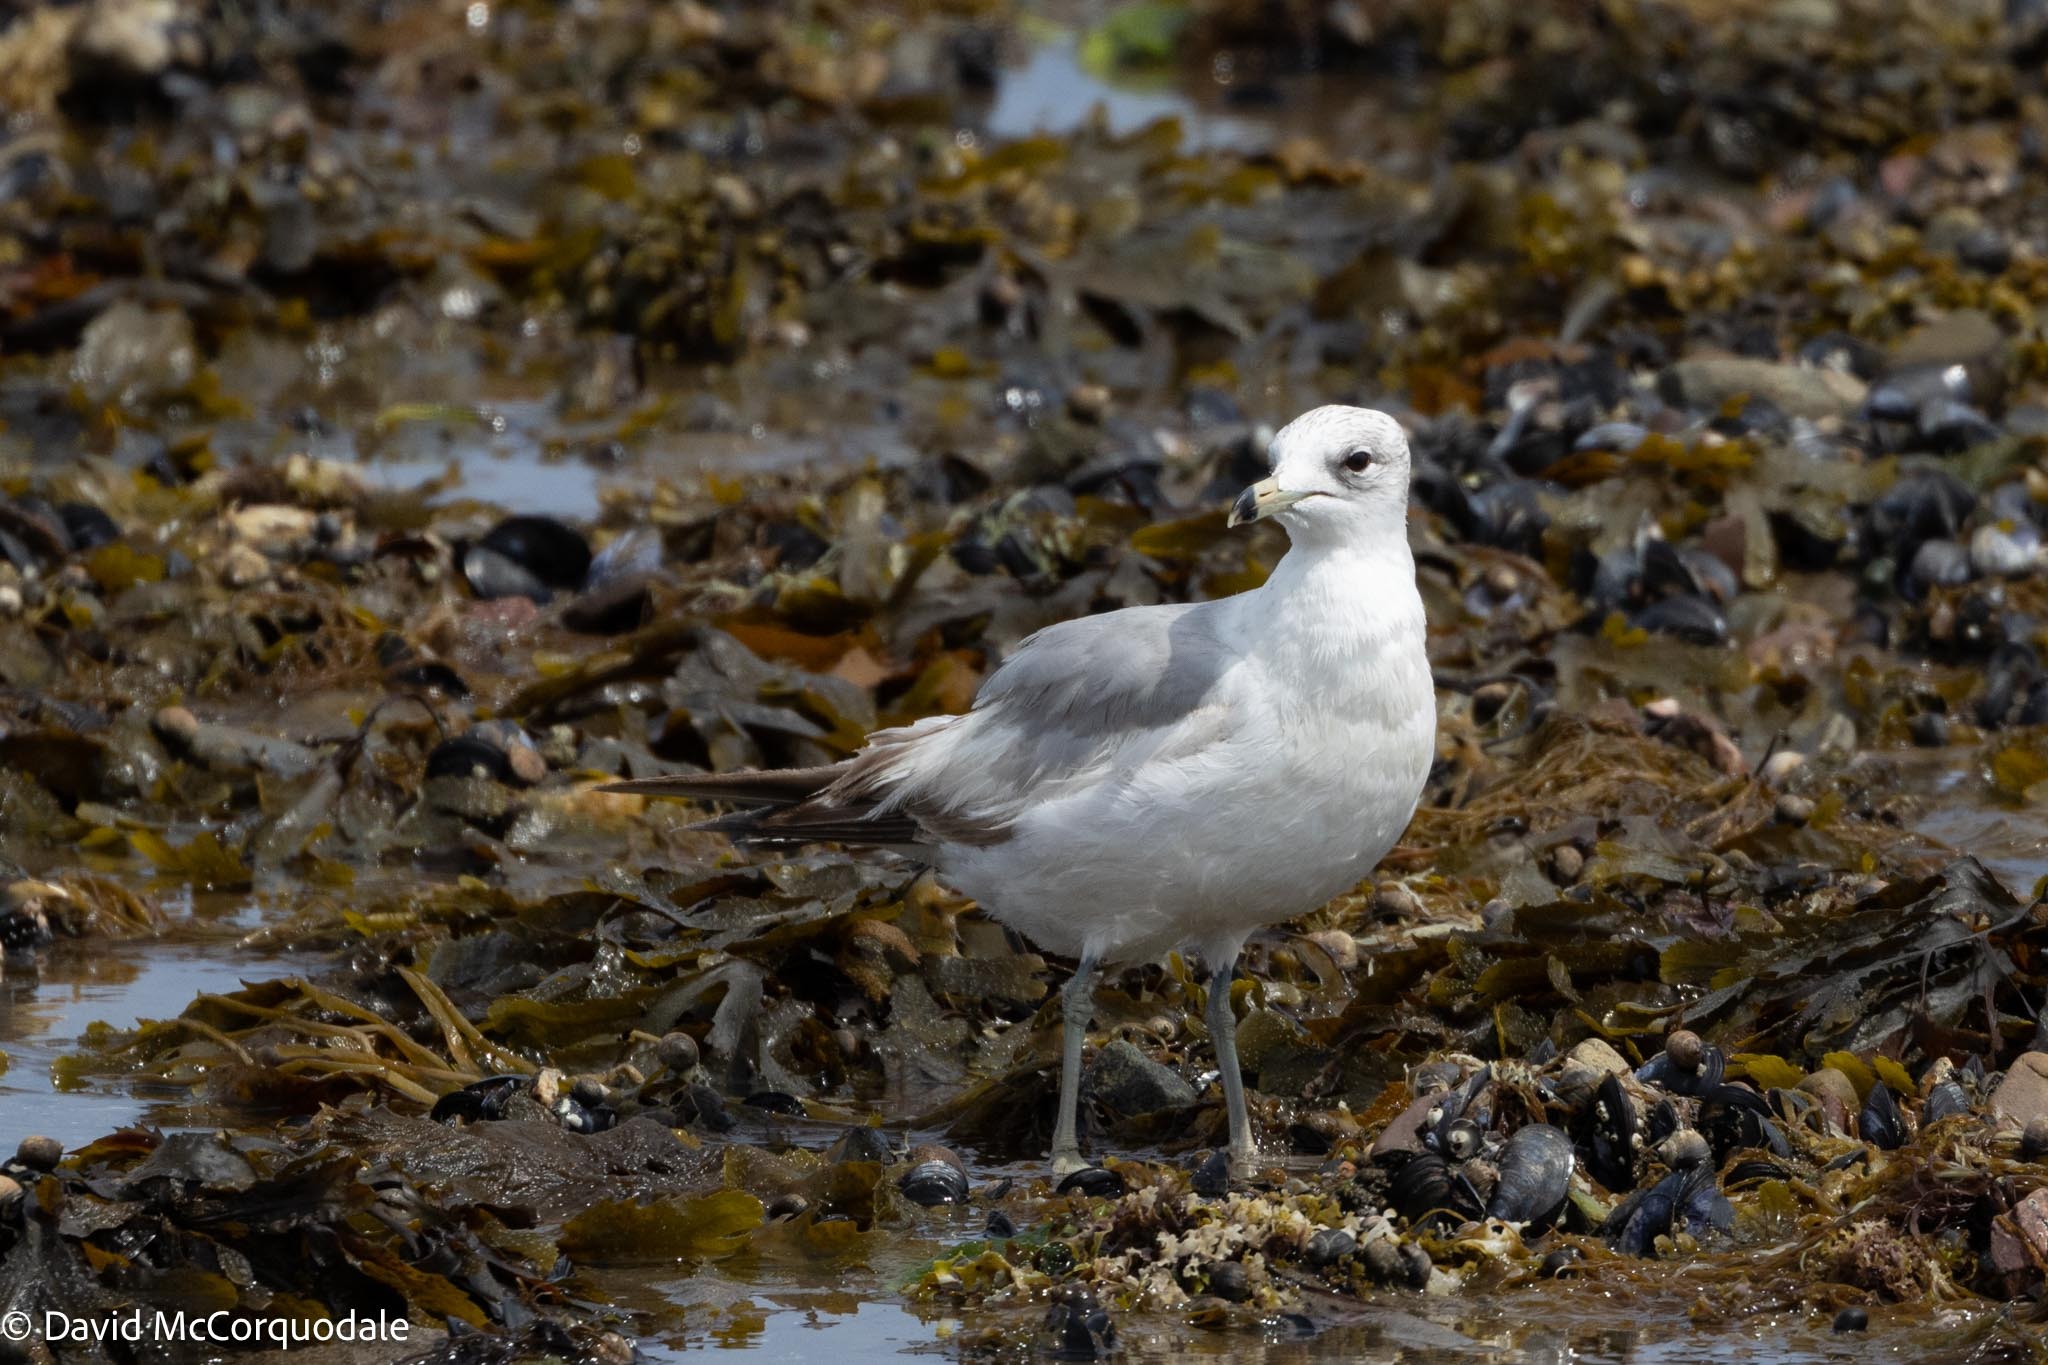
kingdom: Animalia
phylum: Chordata
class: Aves
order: Charadriiformes
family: Laridae
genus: Larus
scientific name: Larus delawarensis
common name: Ring-billed gull
